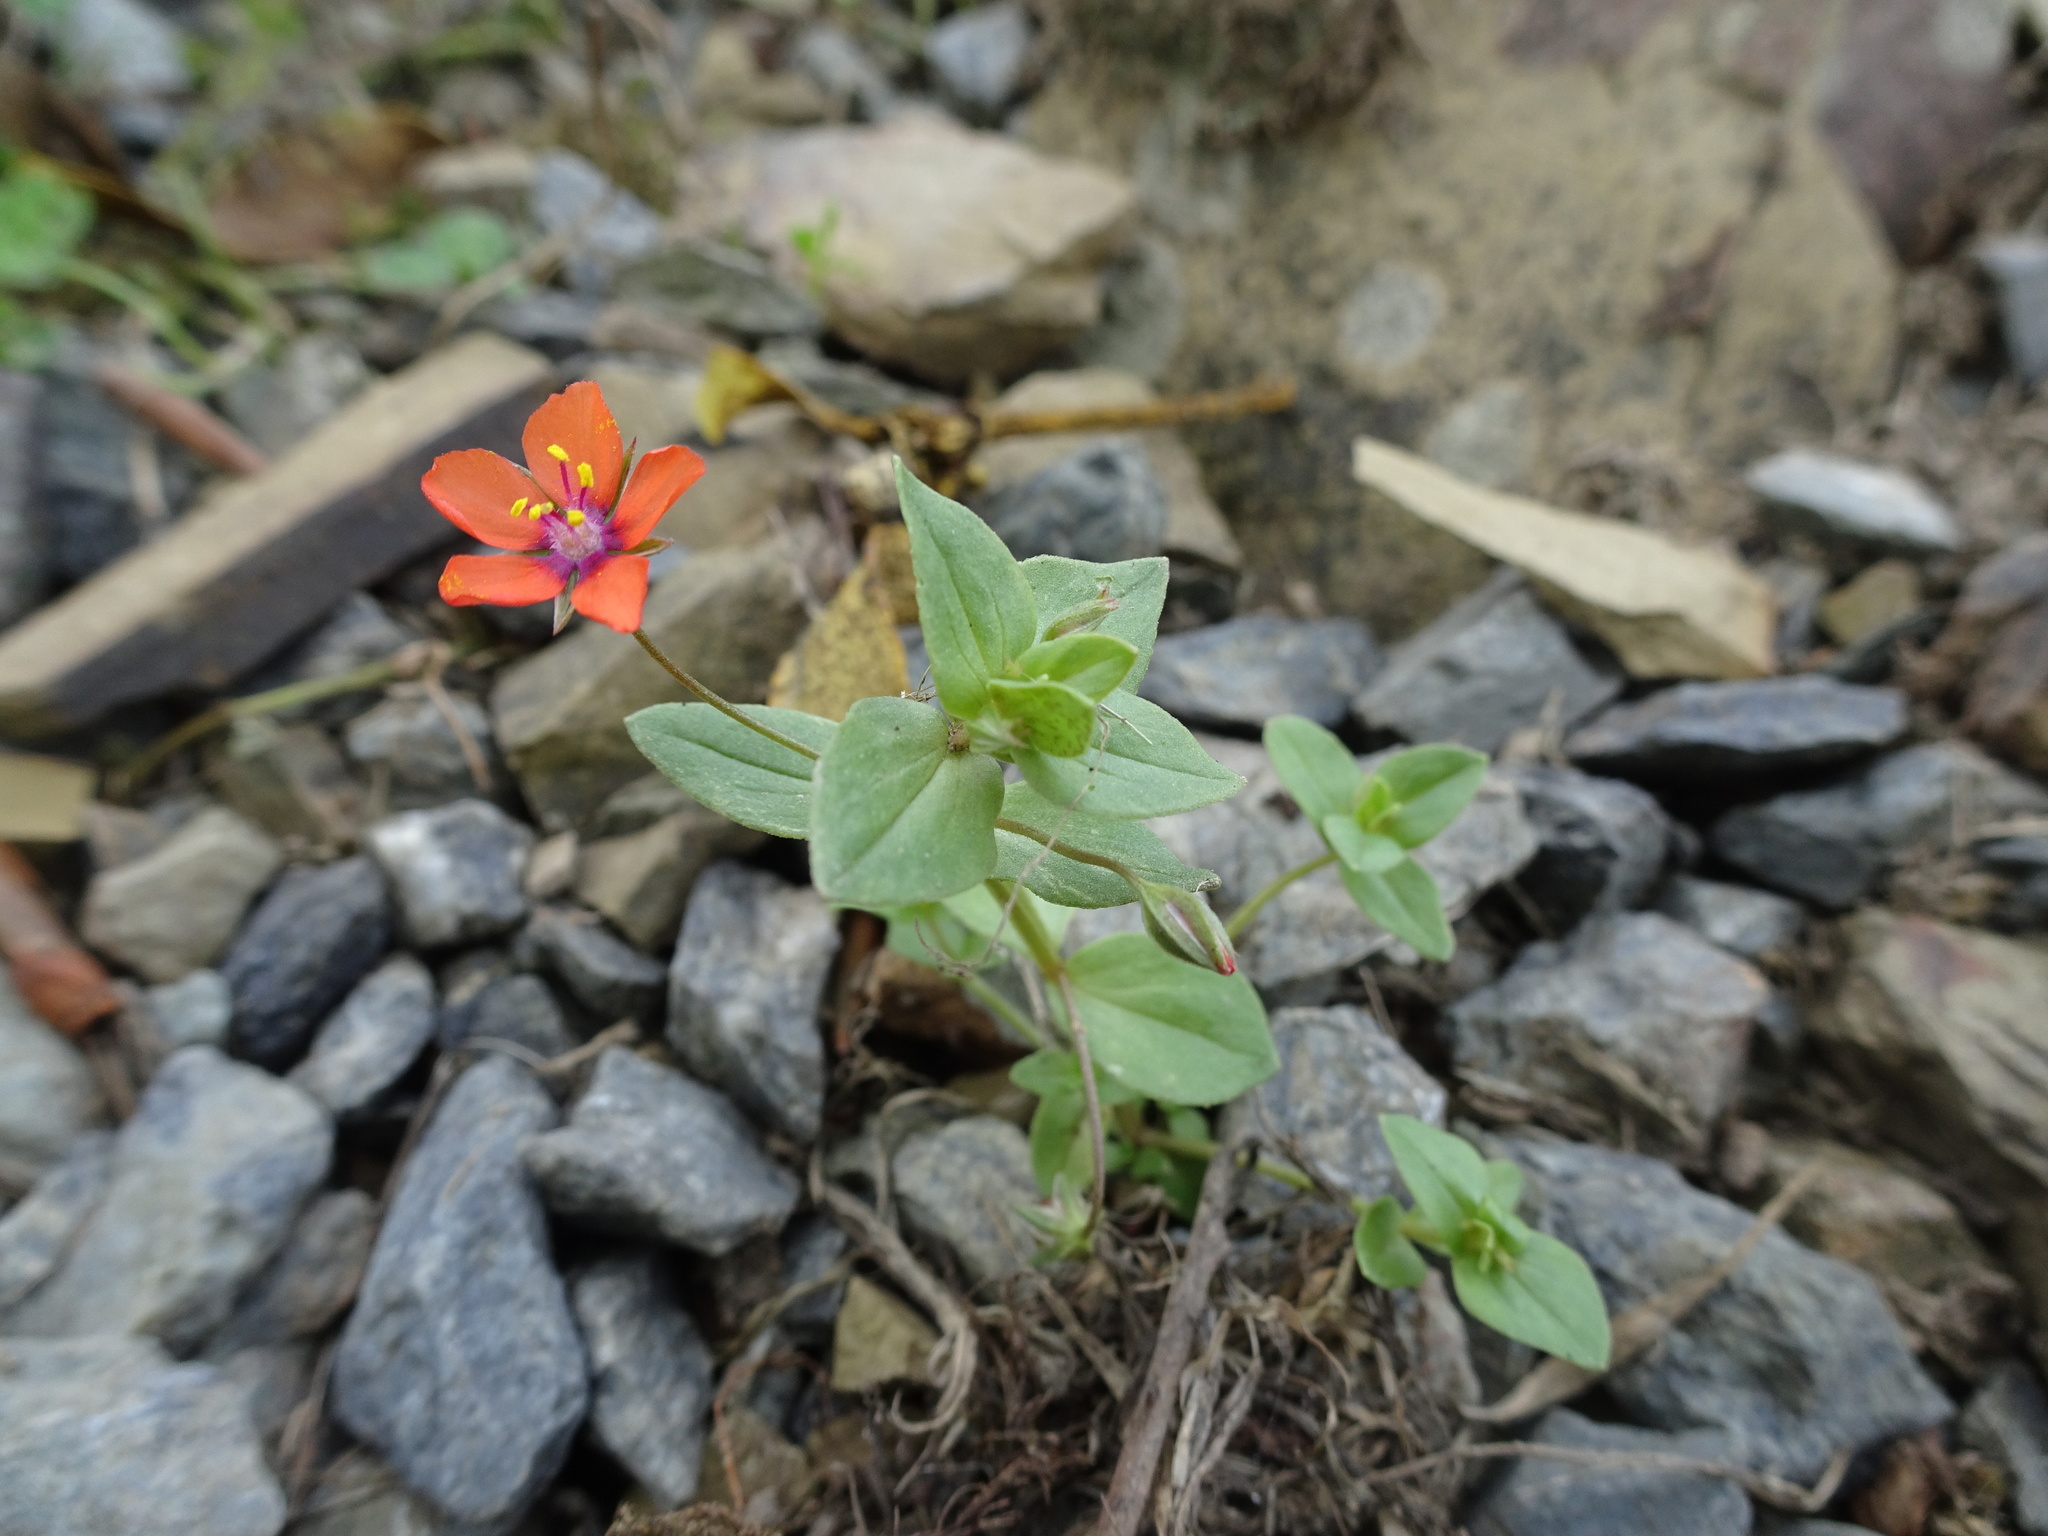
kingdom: Plantae
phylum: Tracheophyta
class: Magnoliopsida
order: Ericales
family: Primulaceae
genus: Lysimachia
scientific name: Lysimachia arvensis
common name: Scarlet pimpernel
